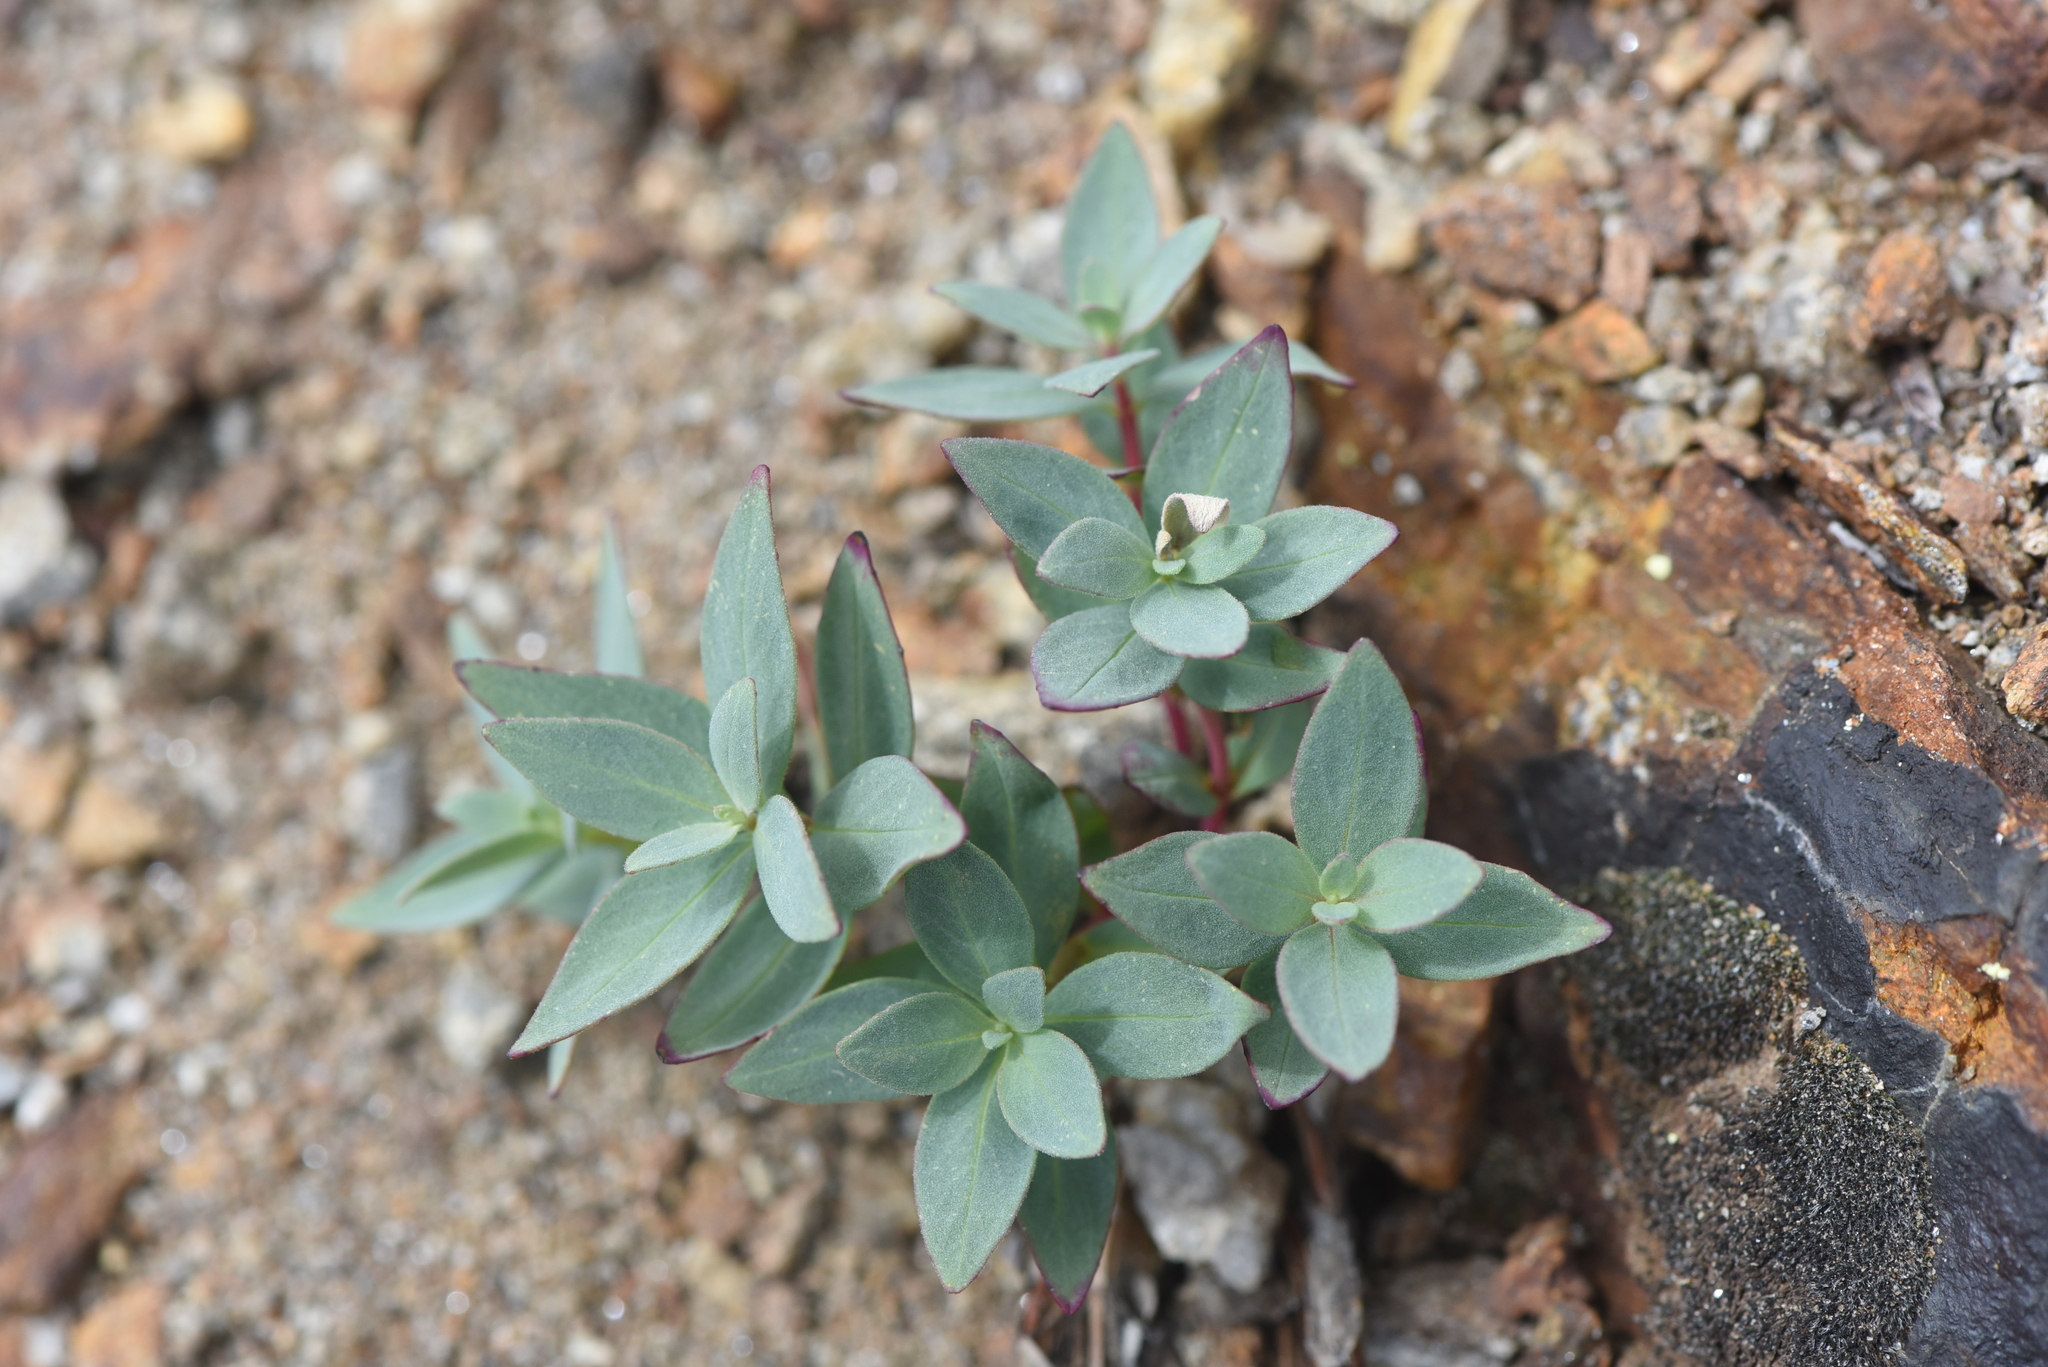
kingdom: Plantae
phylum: Tracheophyta
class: Magnoliopsida
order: Myrtales
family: Onagraceae
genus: Chamaenerion
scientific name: Chamaenerion latifolium
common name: Dwarf fireweed
